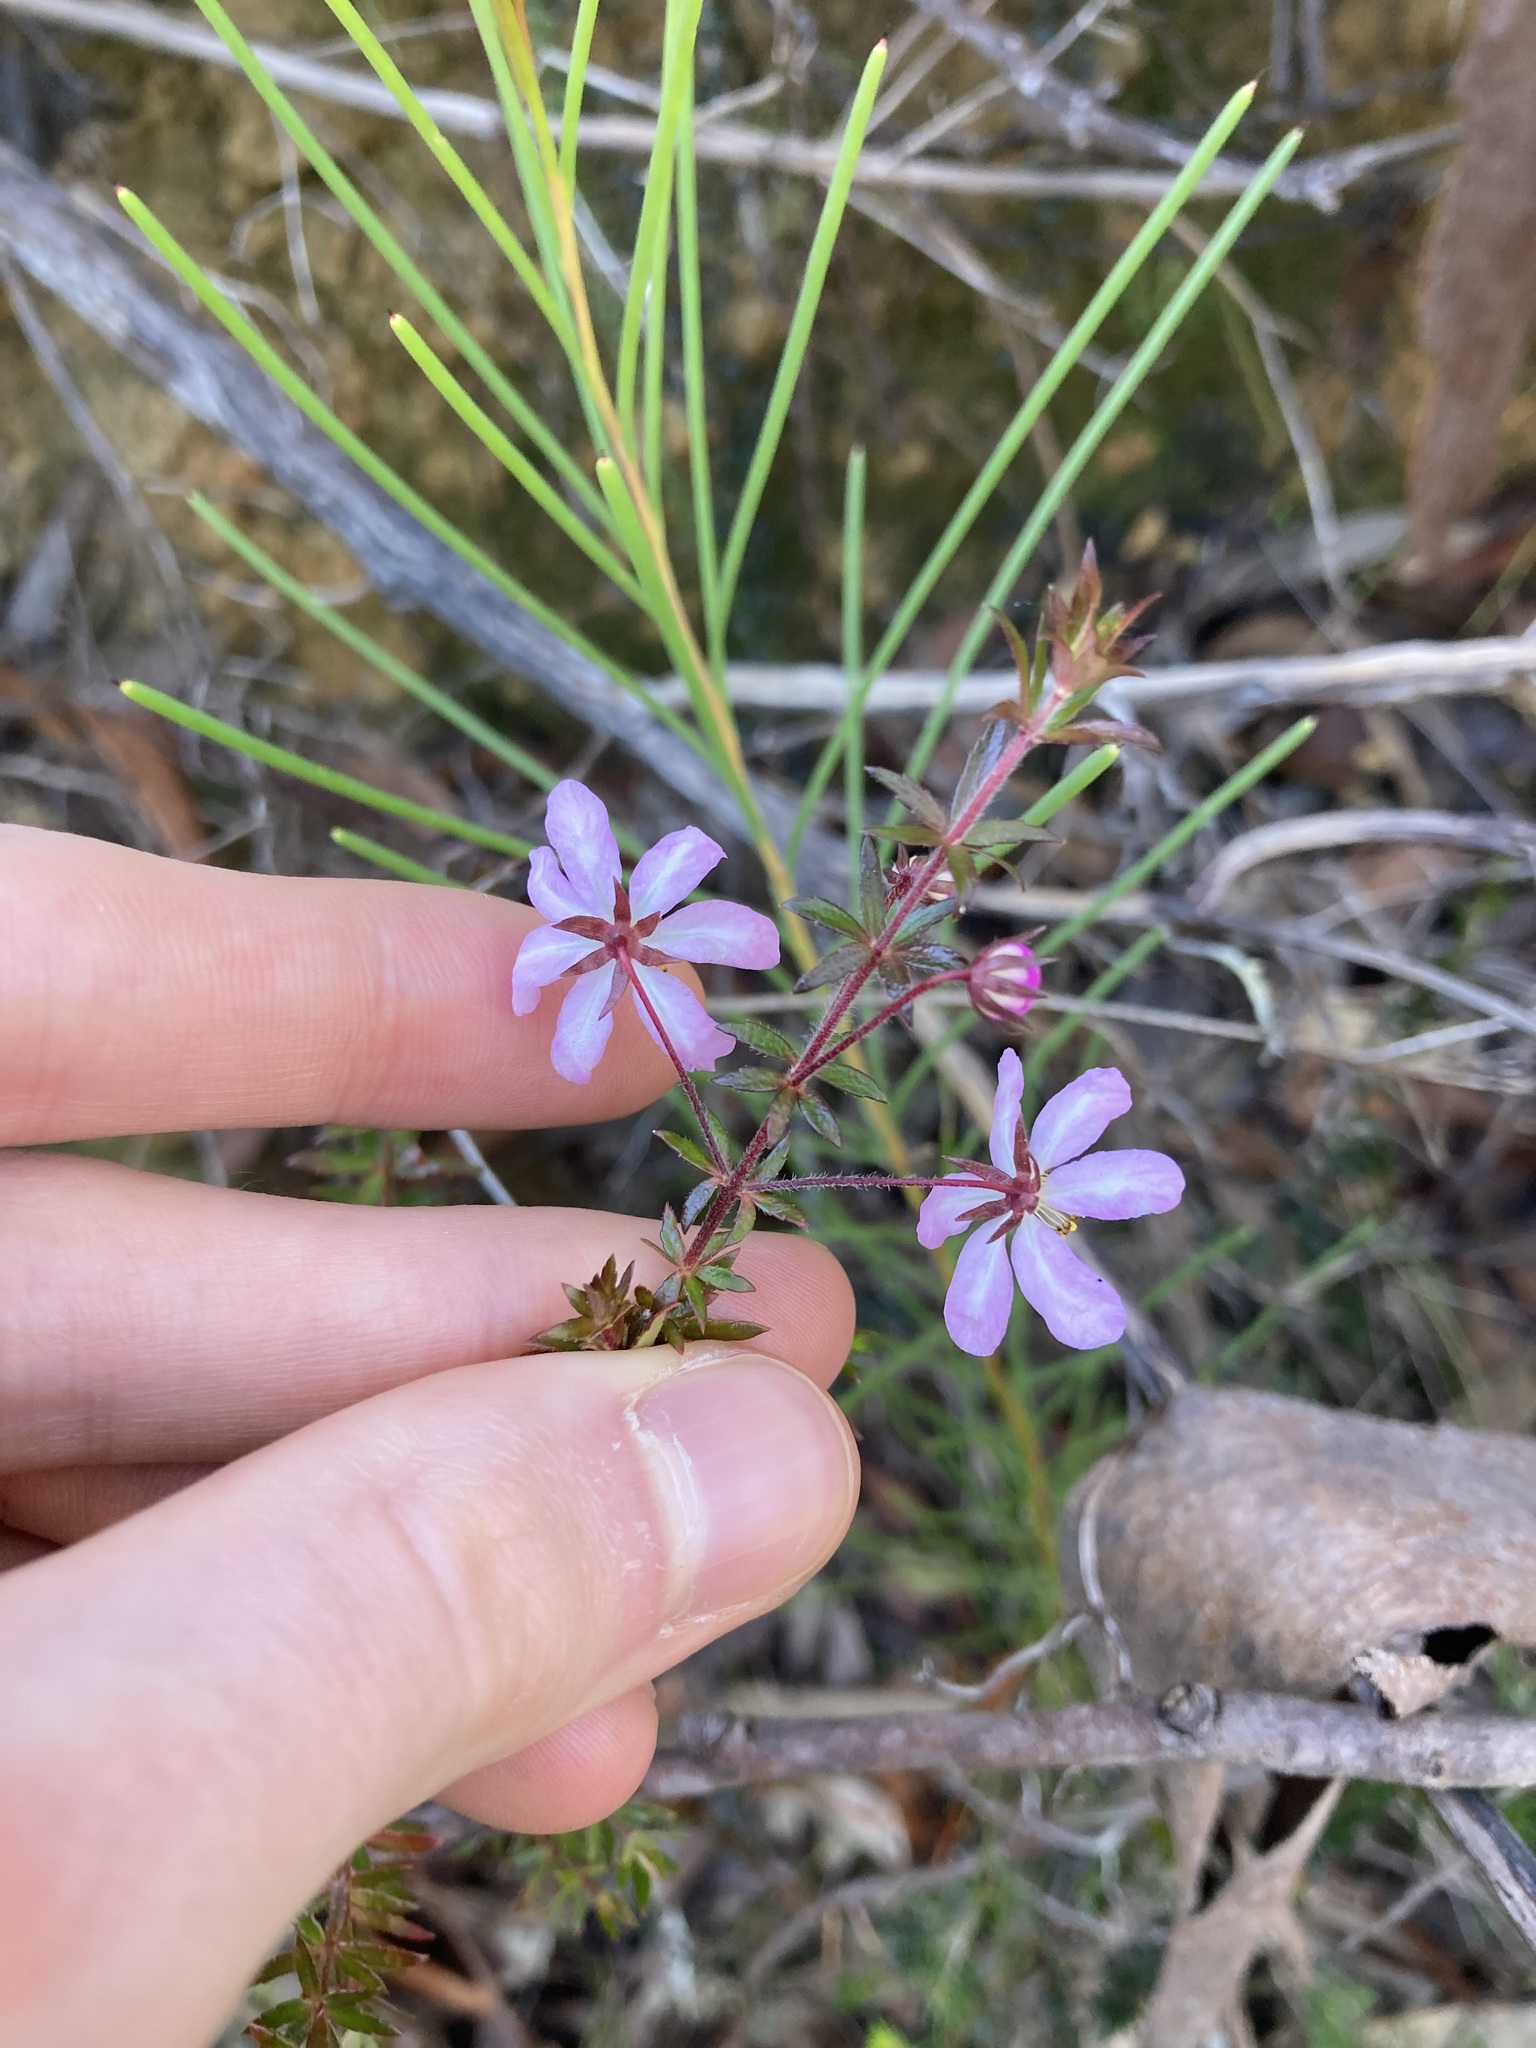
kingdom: Plantae
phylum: Tracheophyta
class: Magnoliopsida
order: Oxalidales
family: Cunoniaceae
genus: Bauera
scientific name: Bauera rubioides
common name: River-rose
